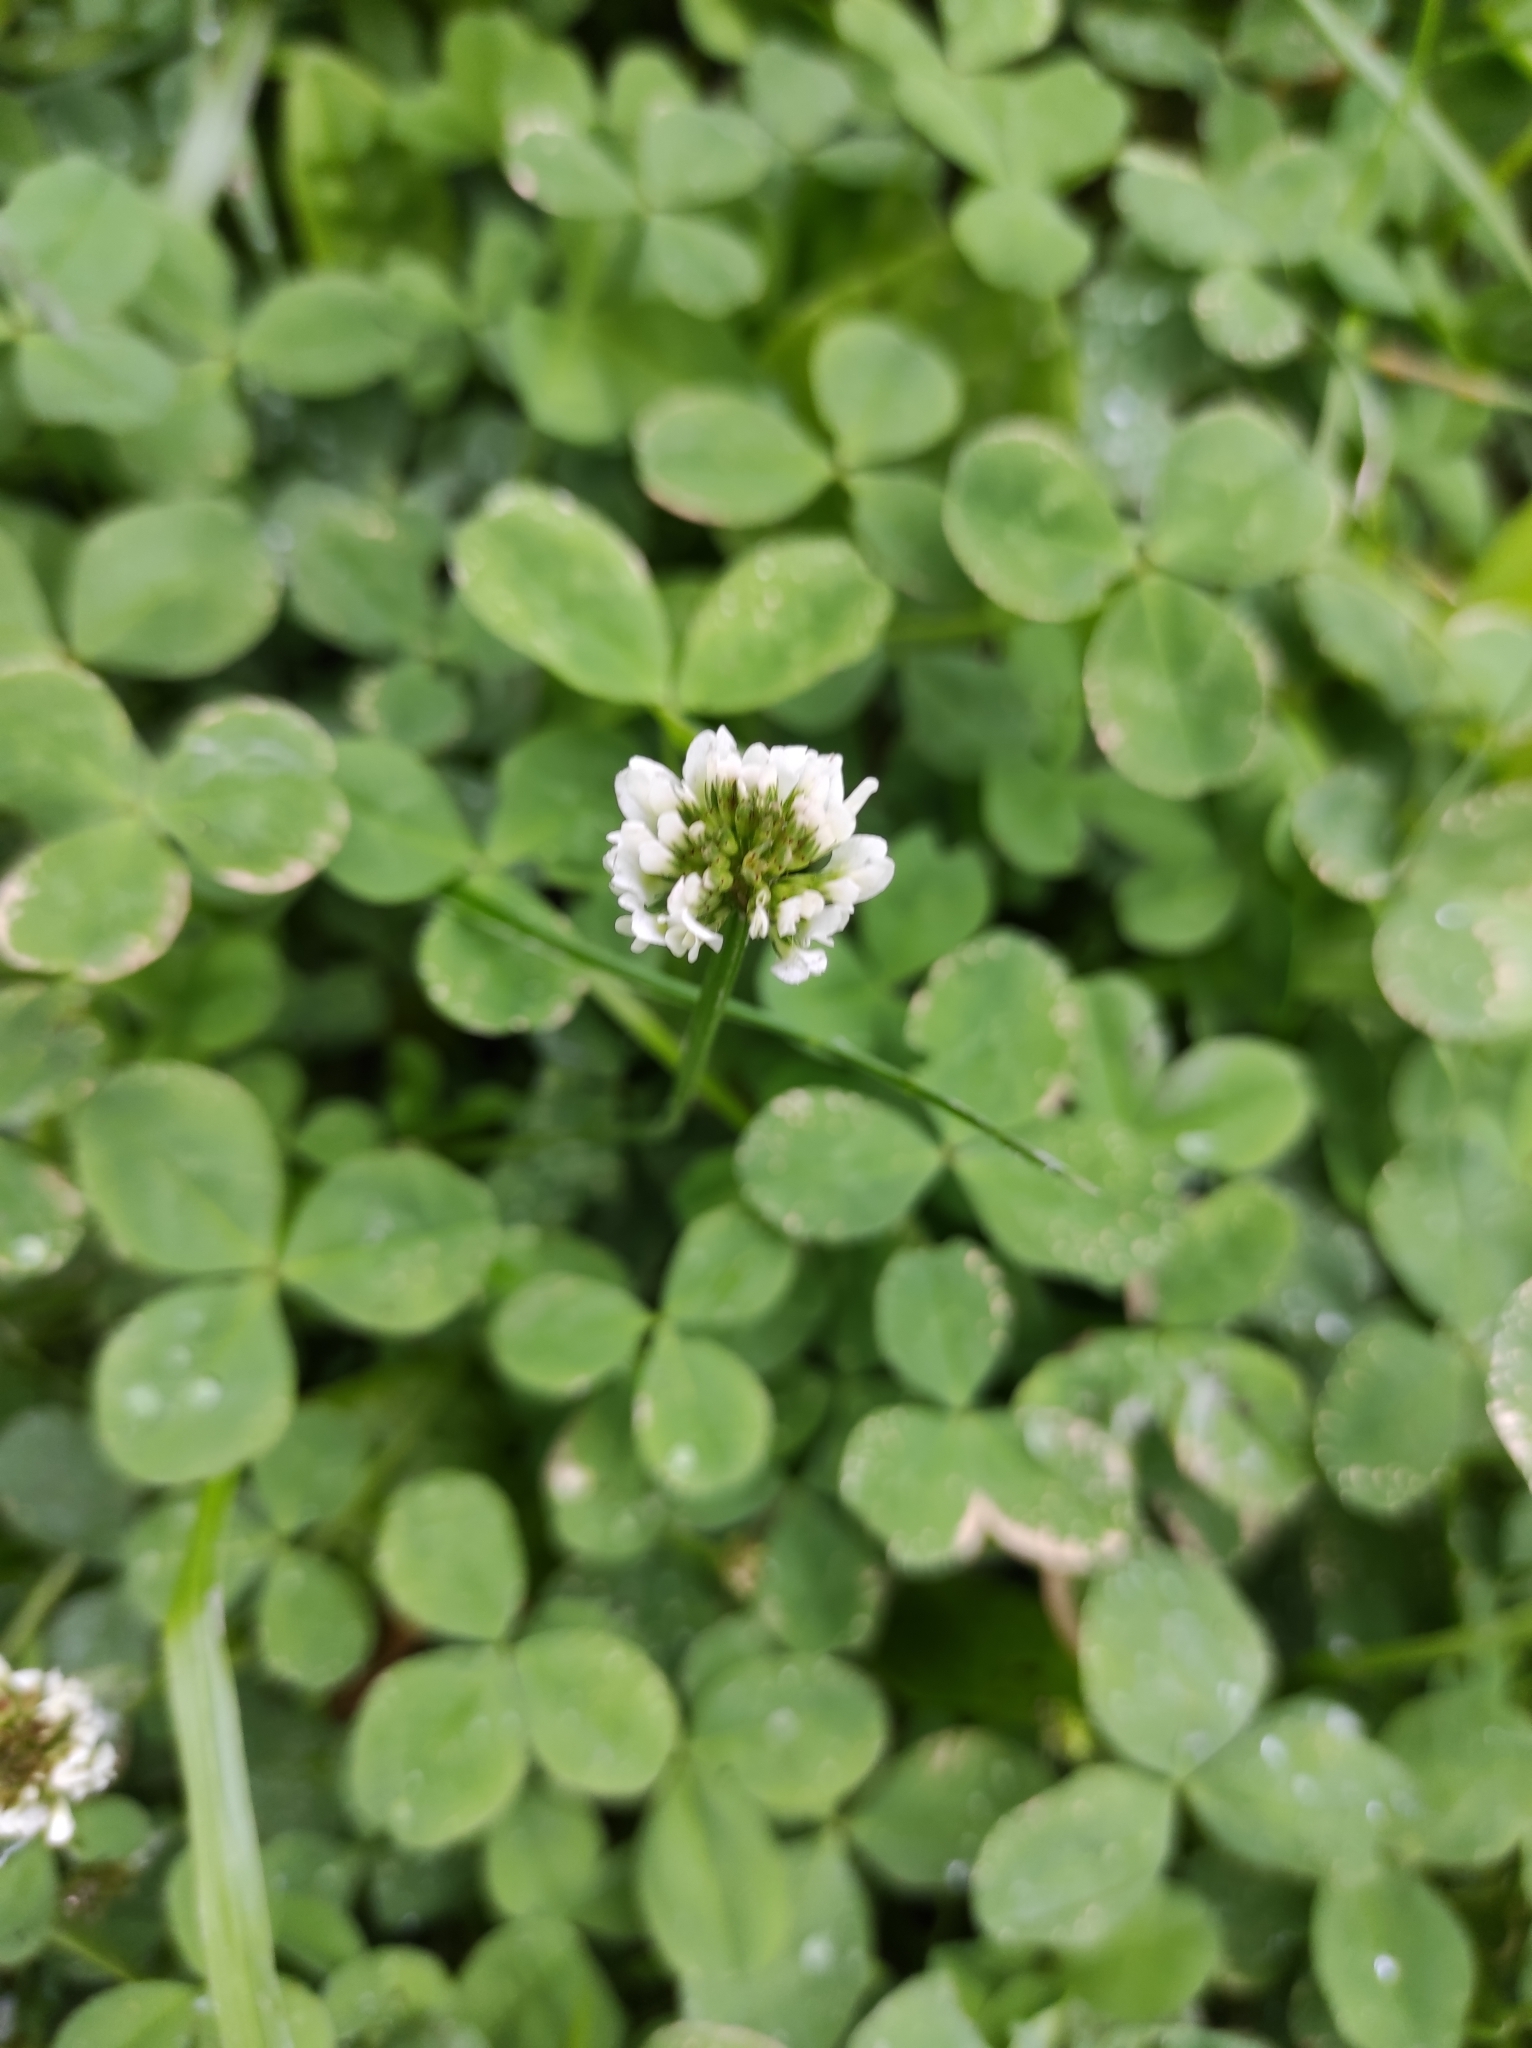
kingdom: Plantae
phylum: Tracheophyta
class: Magnoliopsida
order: Fabales
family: Fabaceae
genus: Trifolium
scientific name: Trifolium repens
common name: White clover
